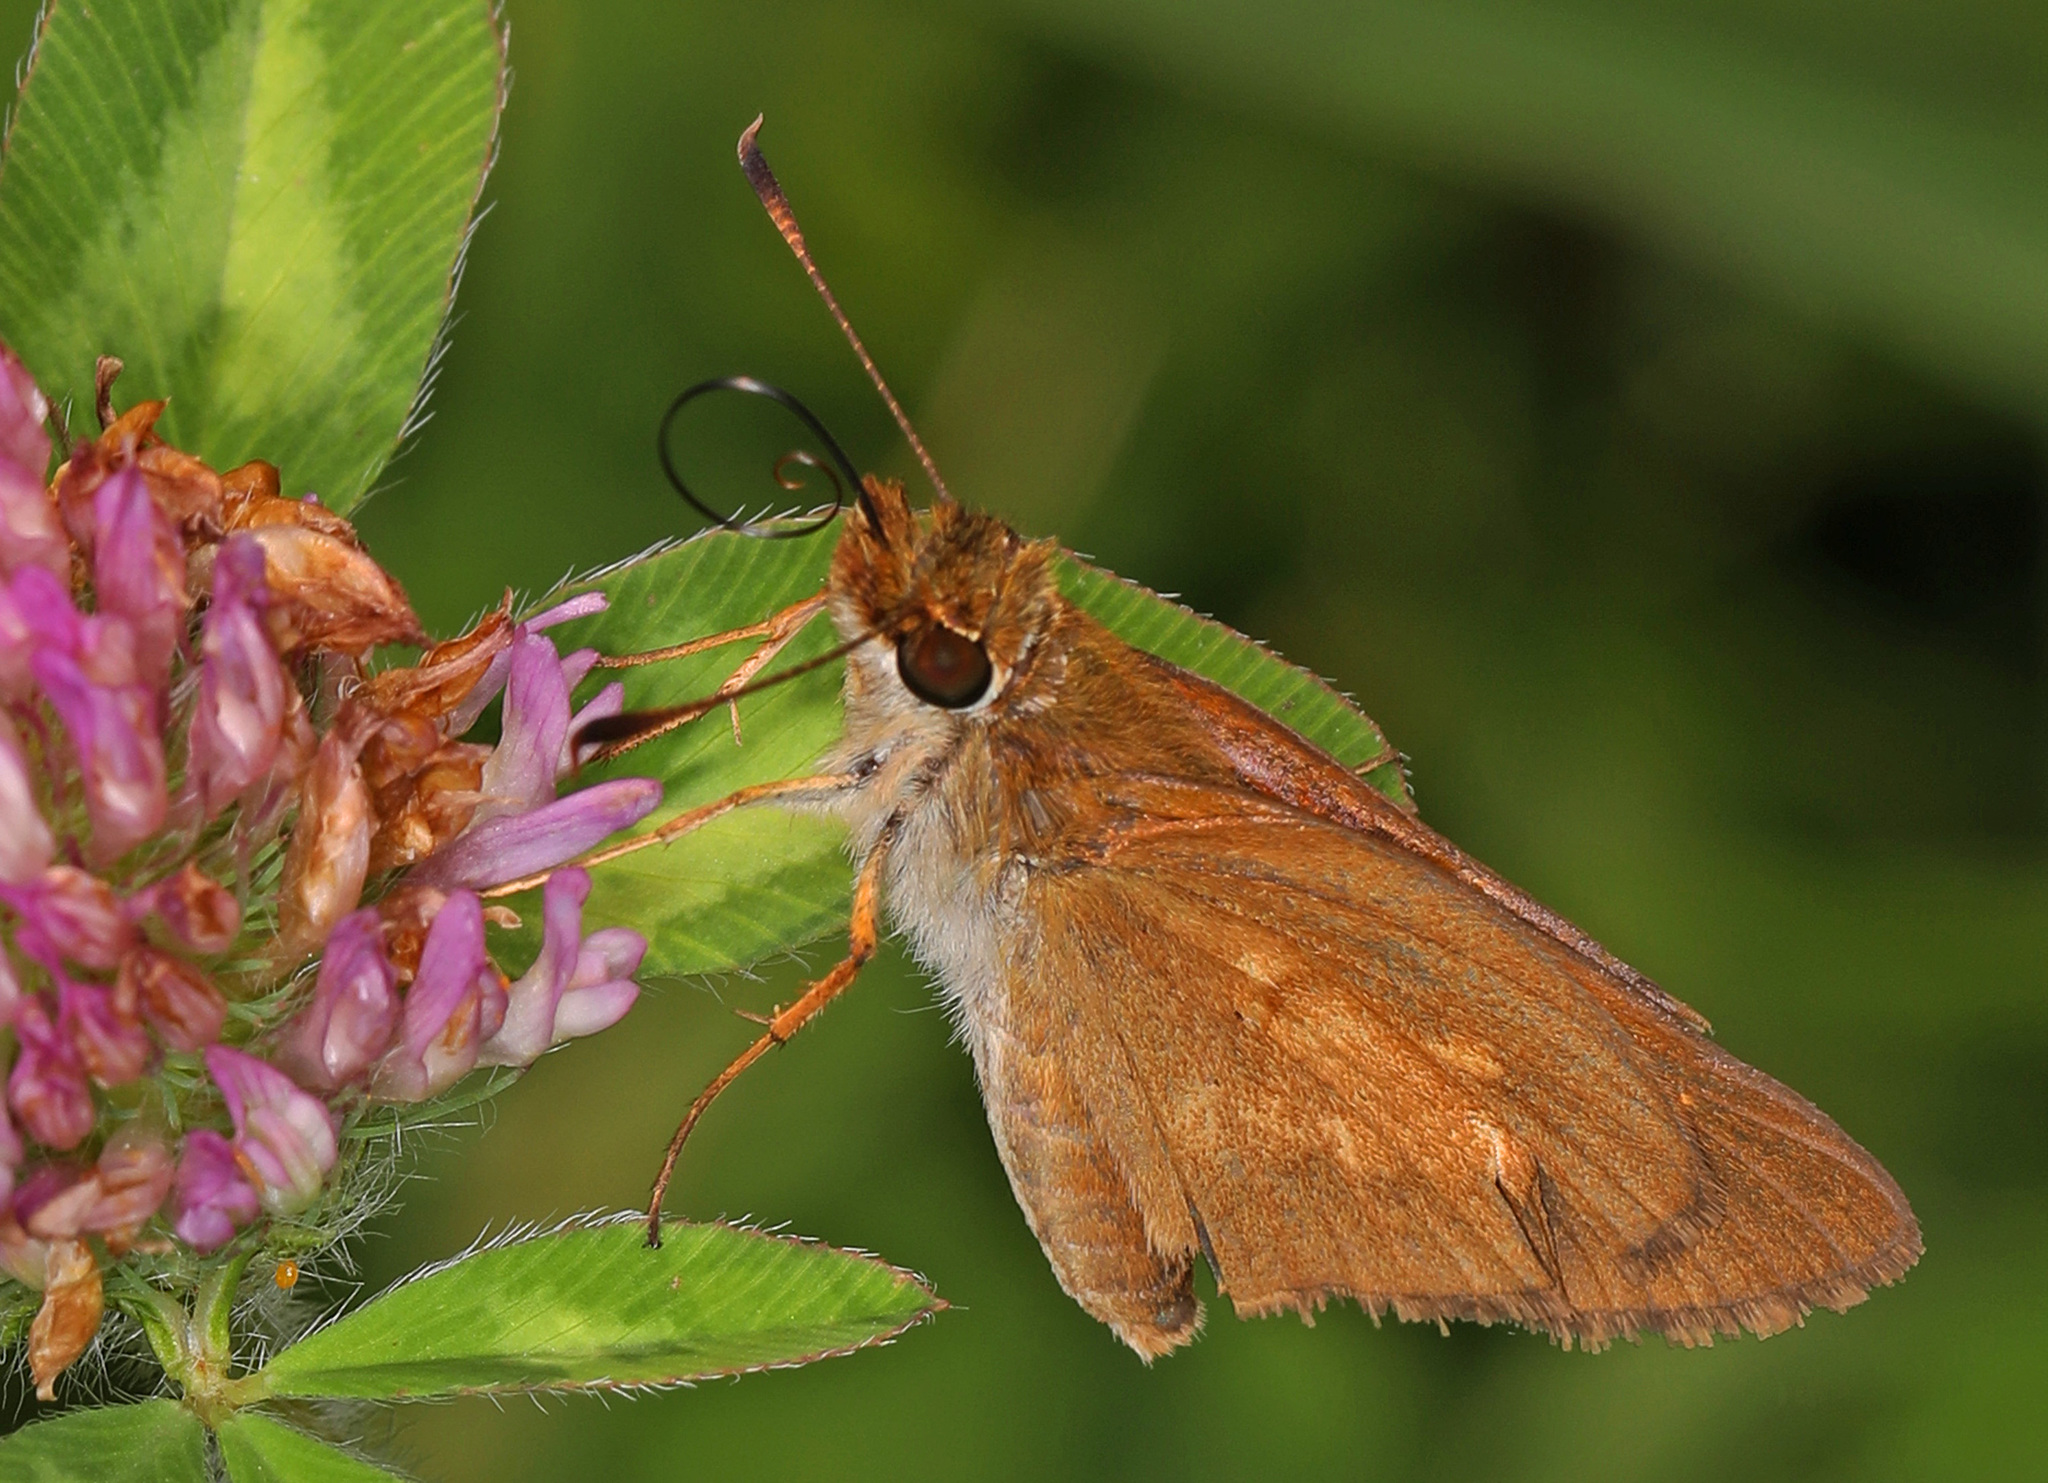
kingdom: Animalia
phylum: Arthropoda
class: Insecta
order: Lepidoptera
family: Hesperiidae
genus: Poanes
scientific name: Poanes viator
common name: Broad-winged skipper
